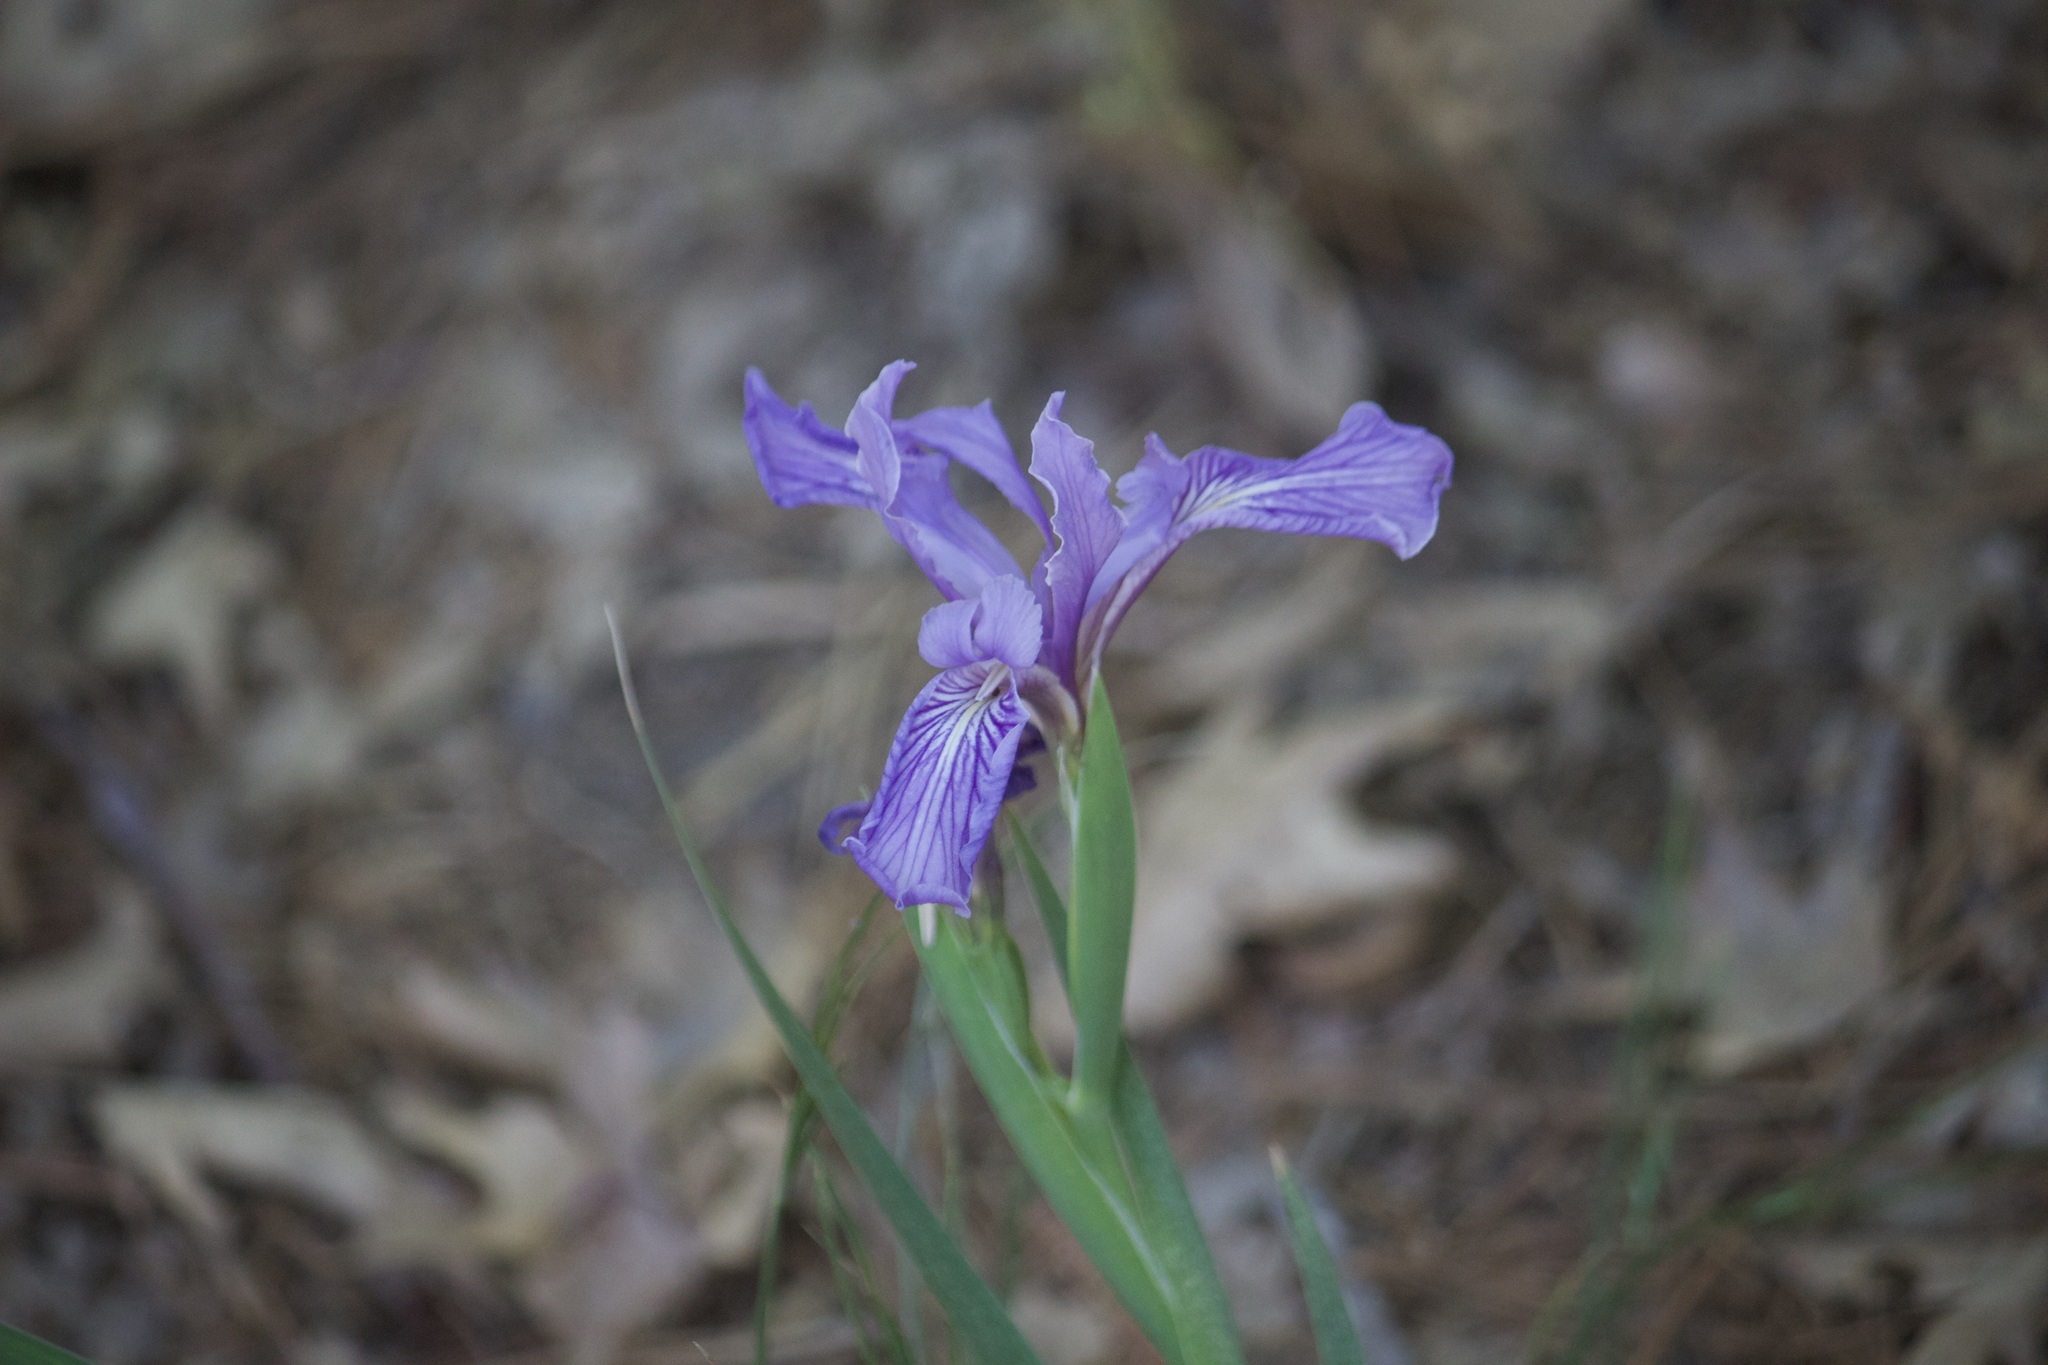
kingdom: Plantae
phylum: Tracheophyta
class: Liliopsida
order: Asparagales
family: Iridaceae
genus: Iris
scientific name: Iris hartwegii
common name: Sierra iris
